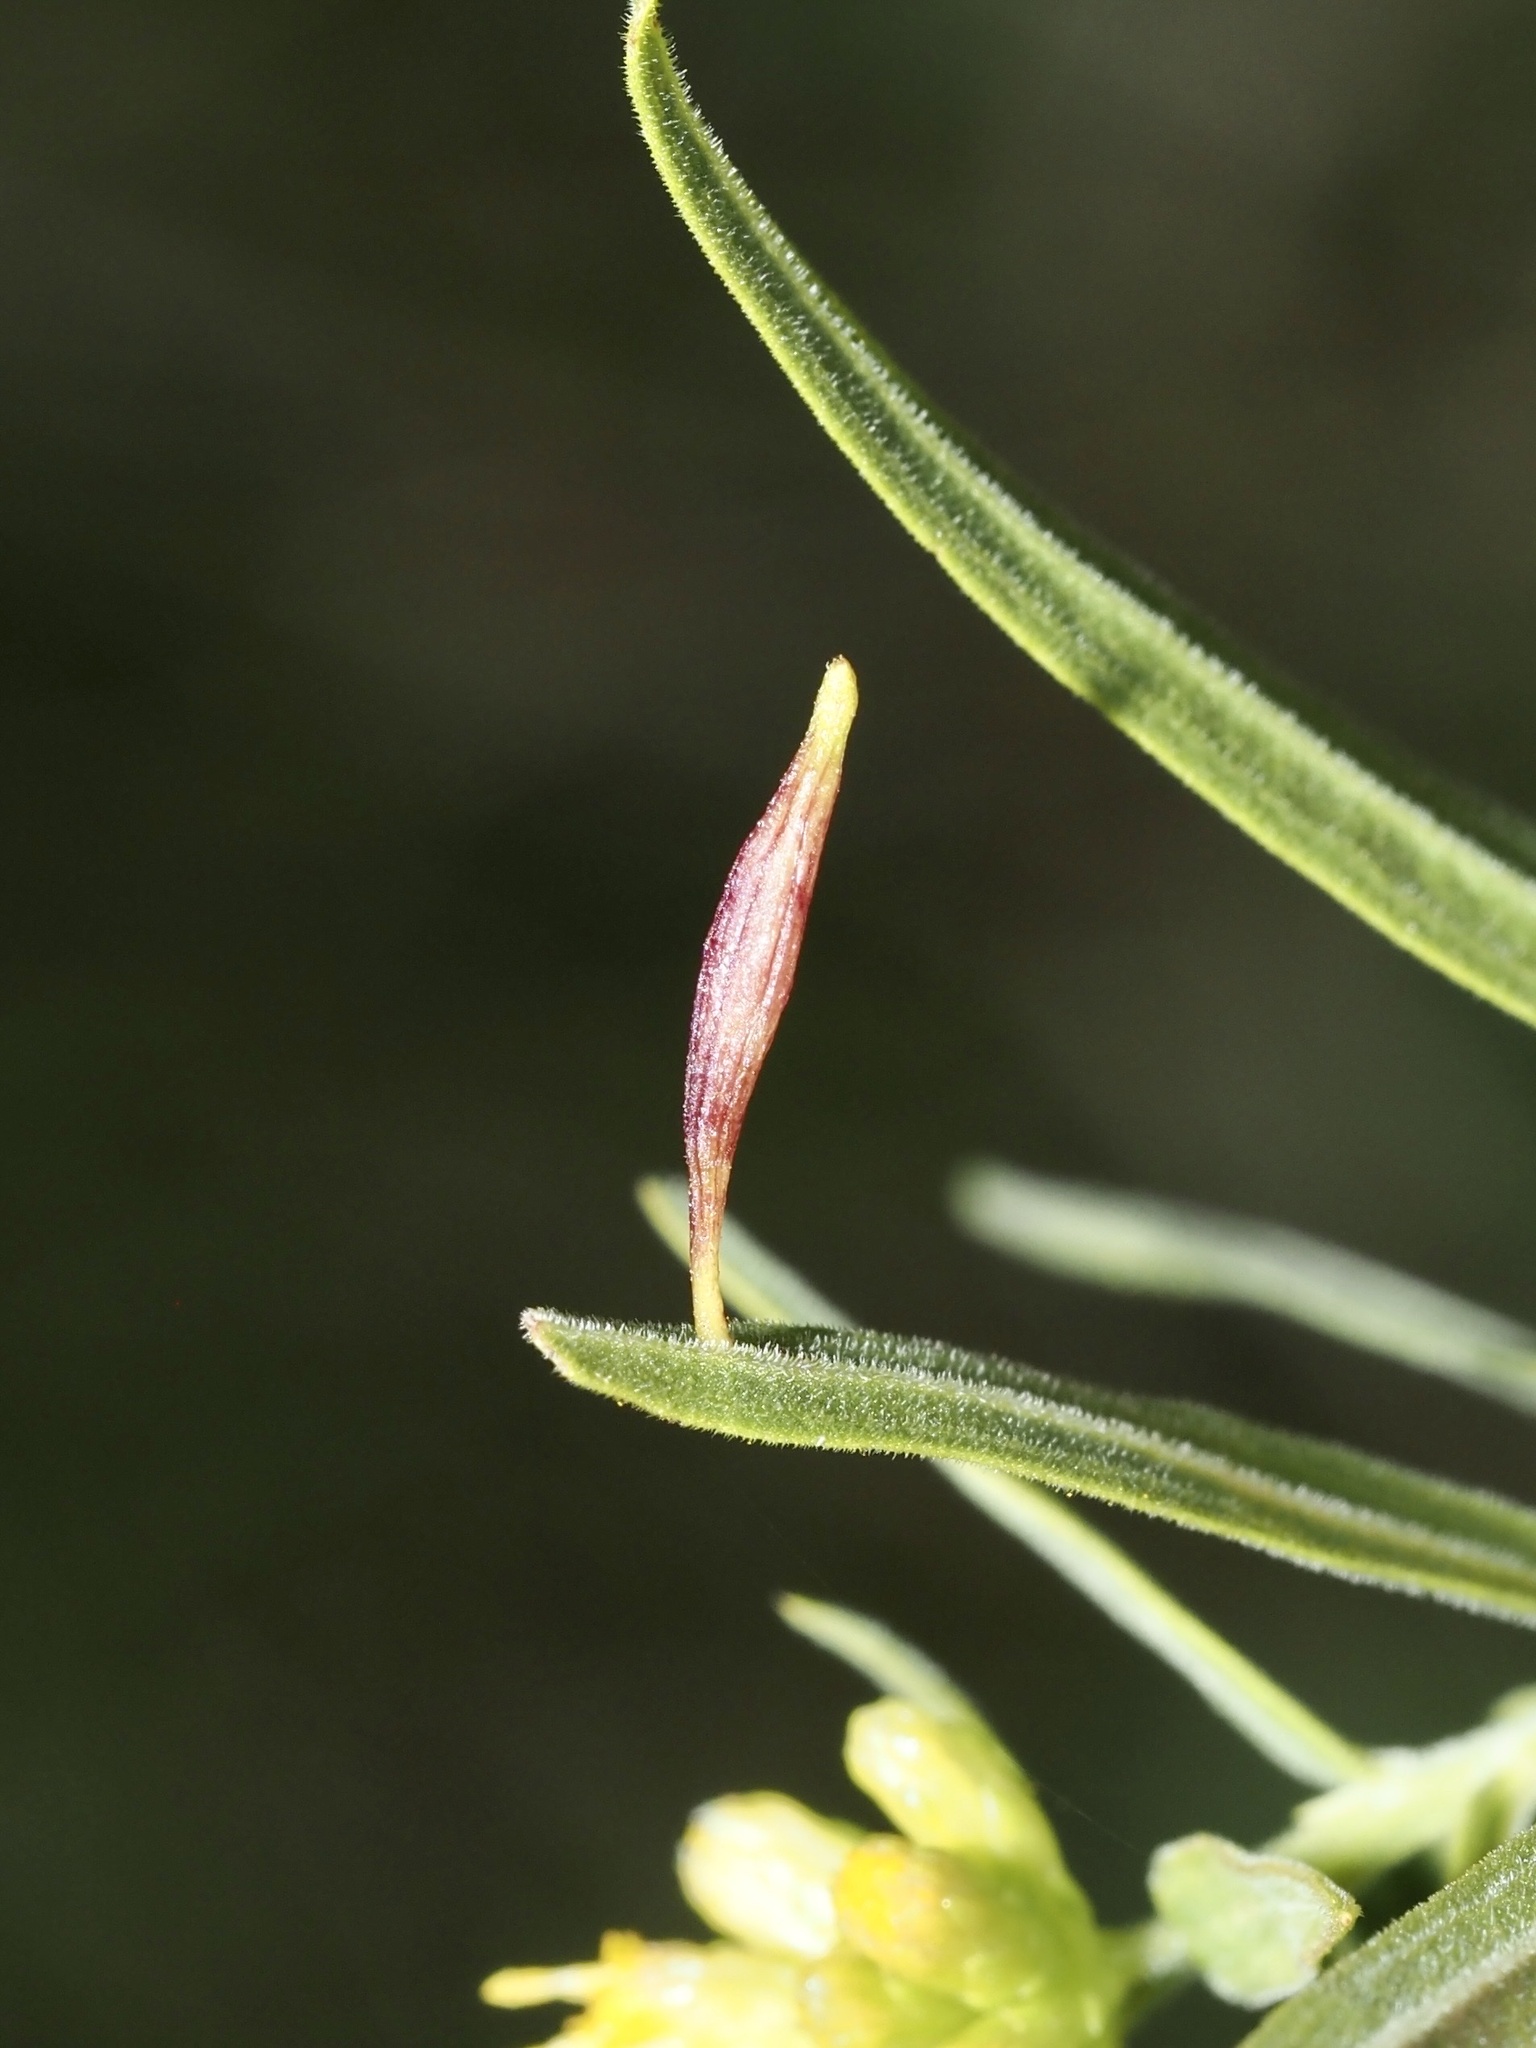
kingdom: Animalia
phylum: Arthropoda
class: Insecta
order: Diptera
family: Cecidomyiidae
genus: Rhopalomyia
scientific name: Rhopalomyia pedicellata
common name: Goldentop pedicellate gall midge
